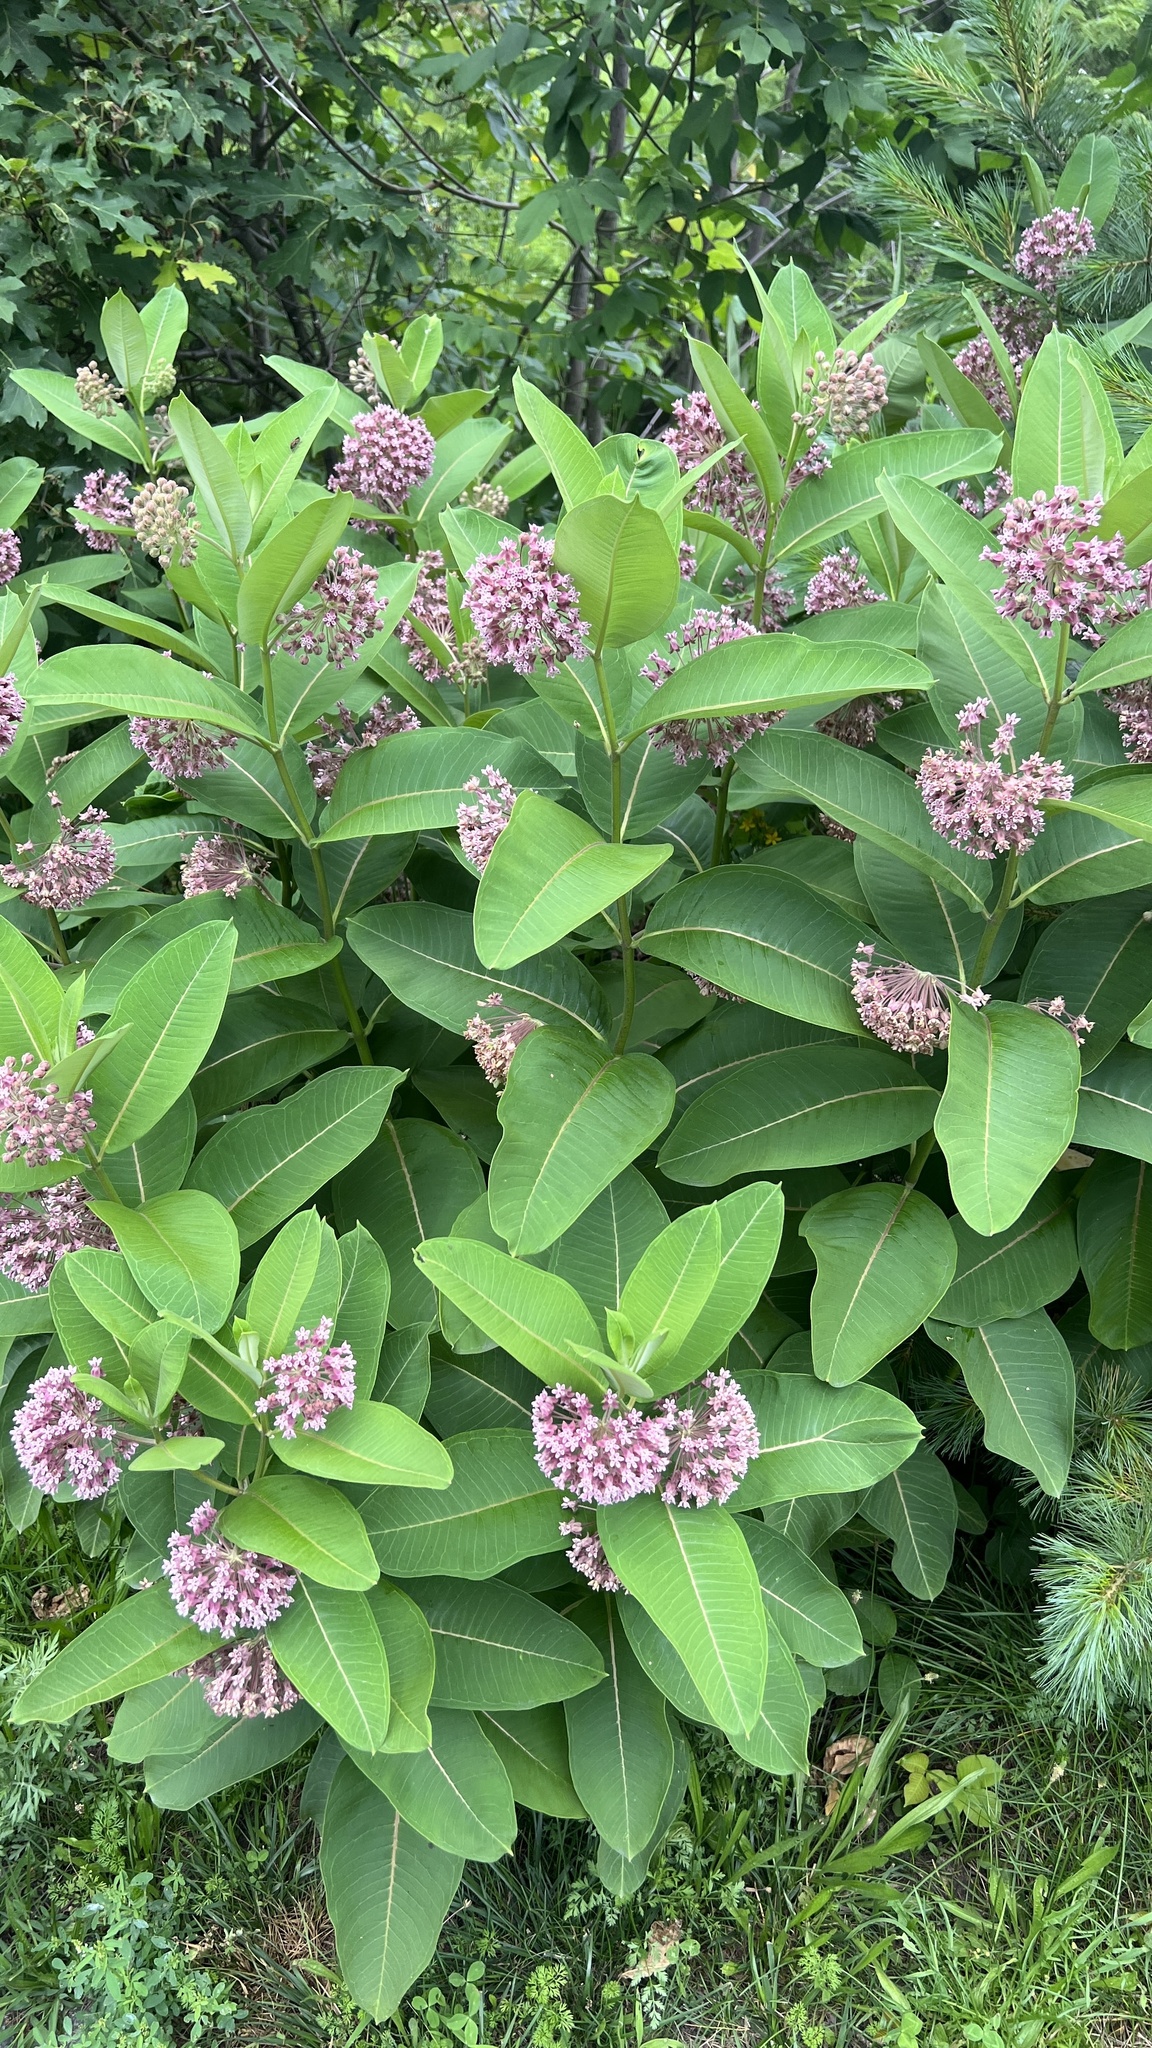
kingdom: Plantae
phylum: Tracheophyta
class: Magnoliopsida
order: Gentianales
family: Apocynaceae
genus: Asclepias
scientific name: Asclepias syriaca
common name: Common milkweed
